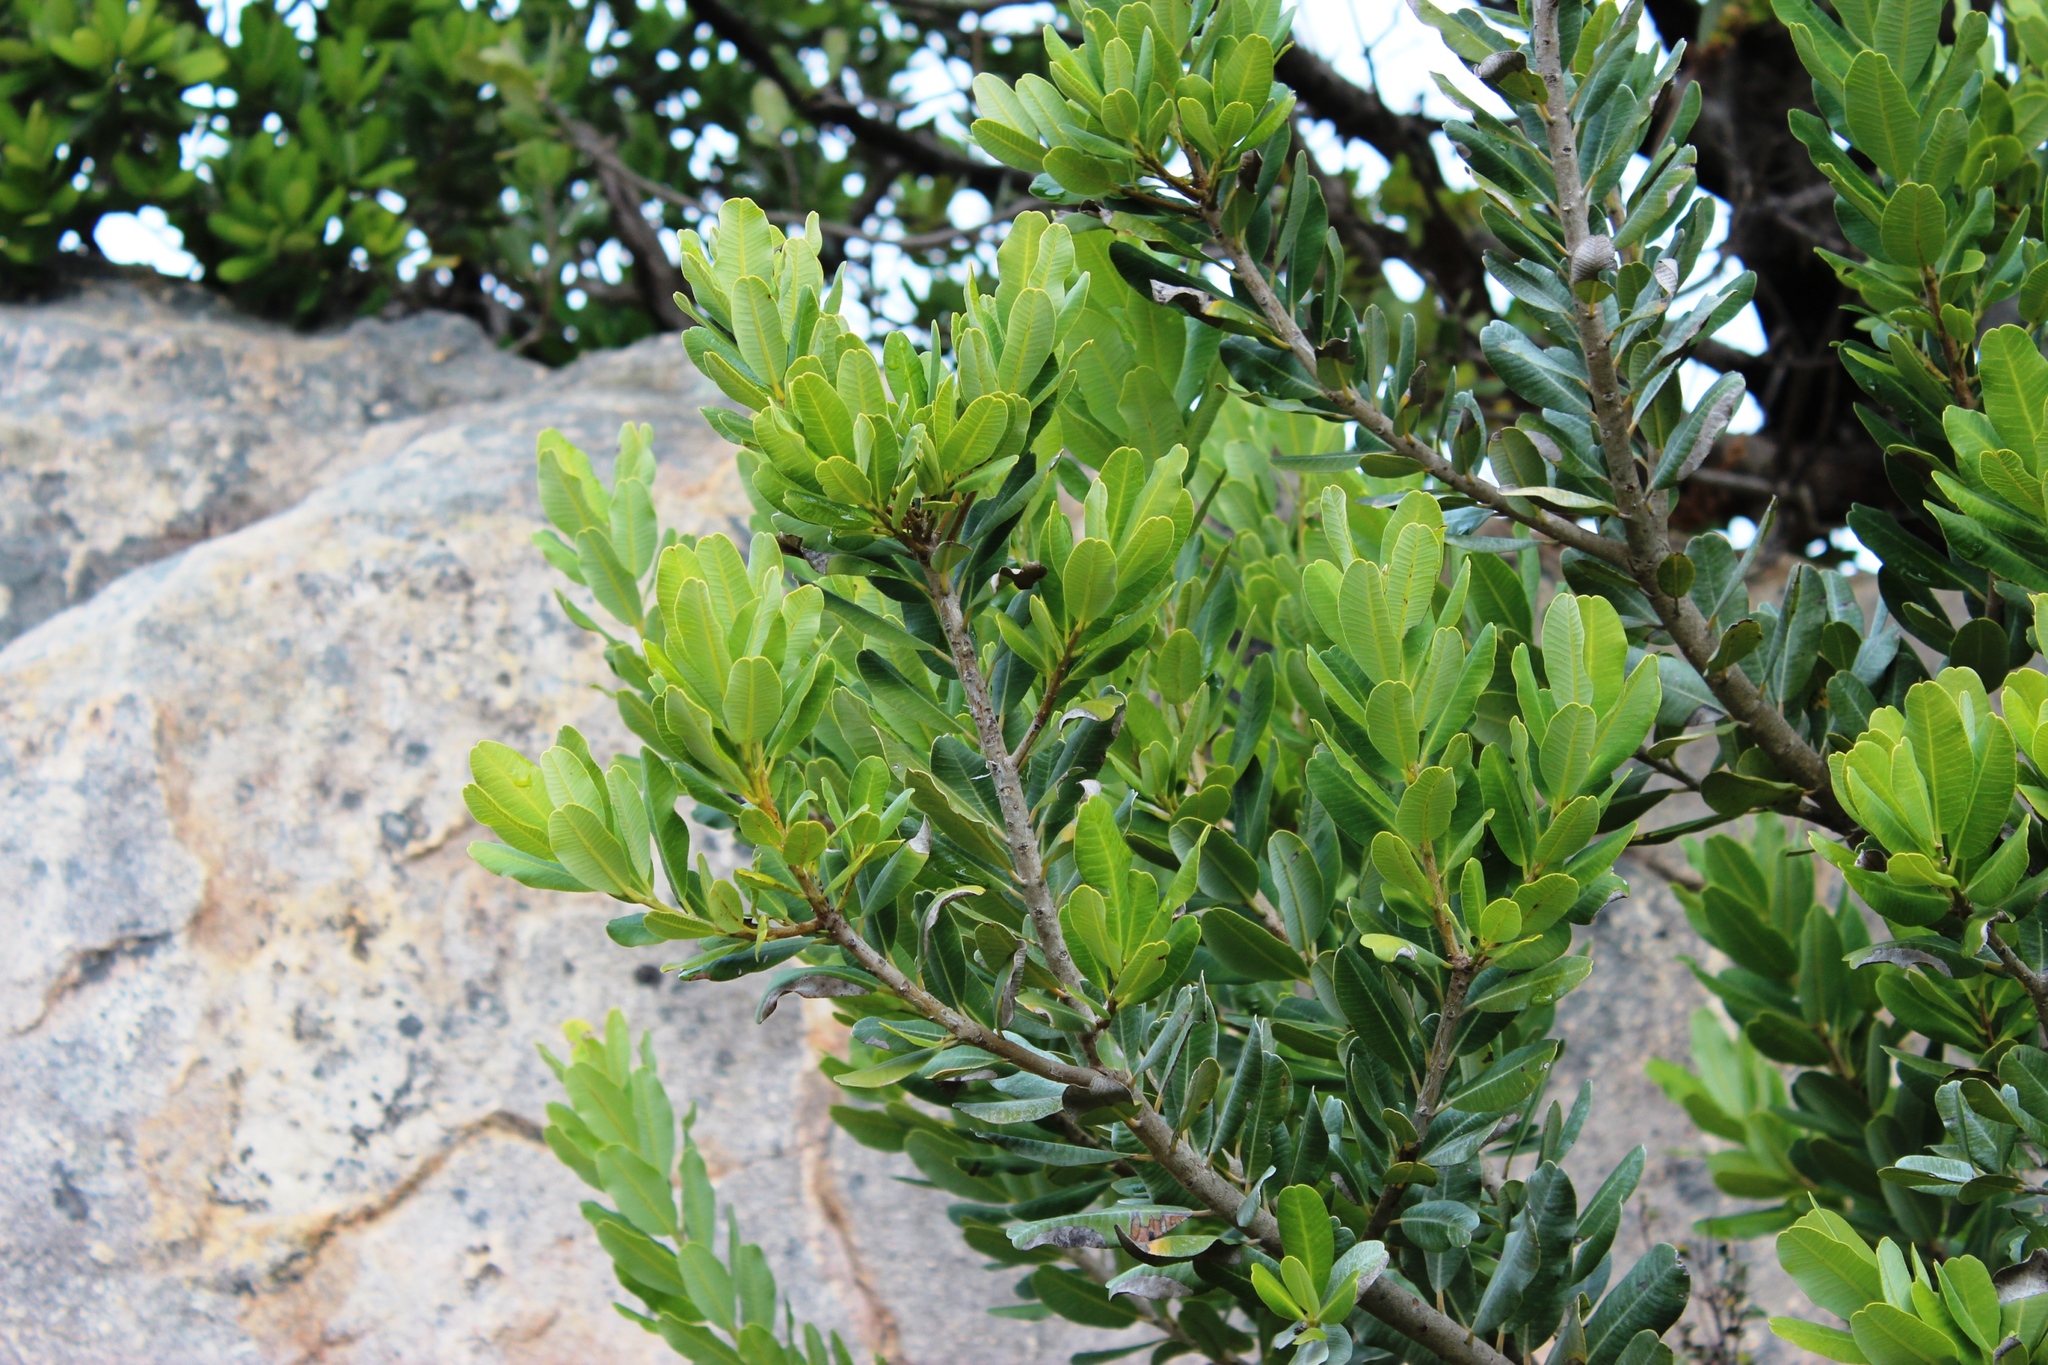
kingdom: Plantae
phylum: Tracheophyta
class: Magnoliopsida
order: Sapindales
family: Anacardiaceae
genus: Heeria
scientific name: Heeria argentea
